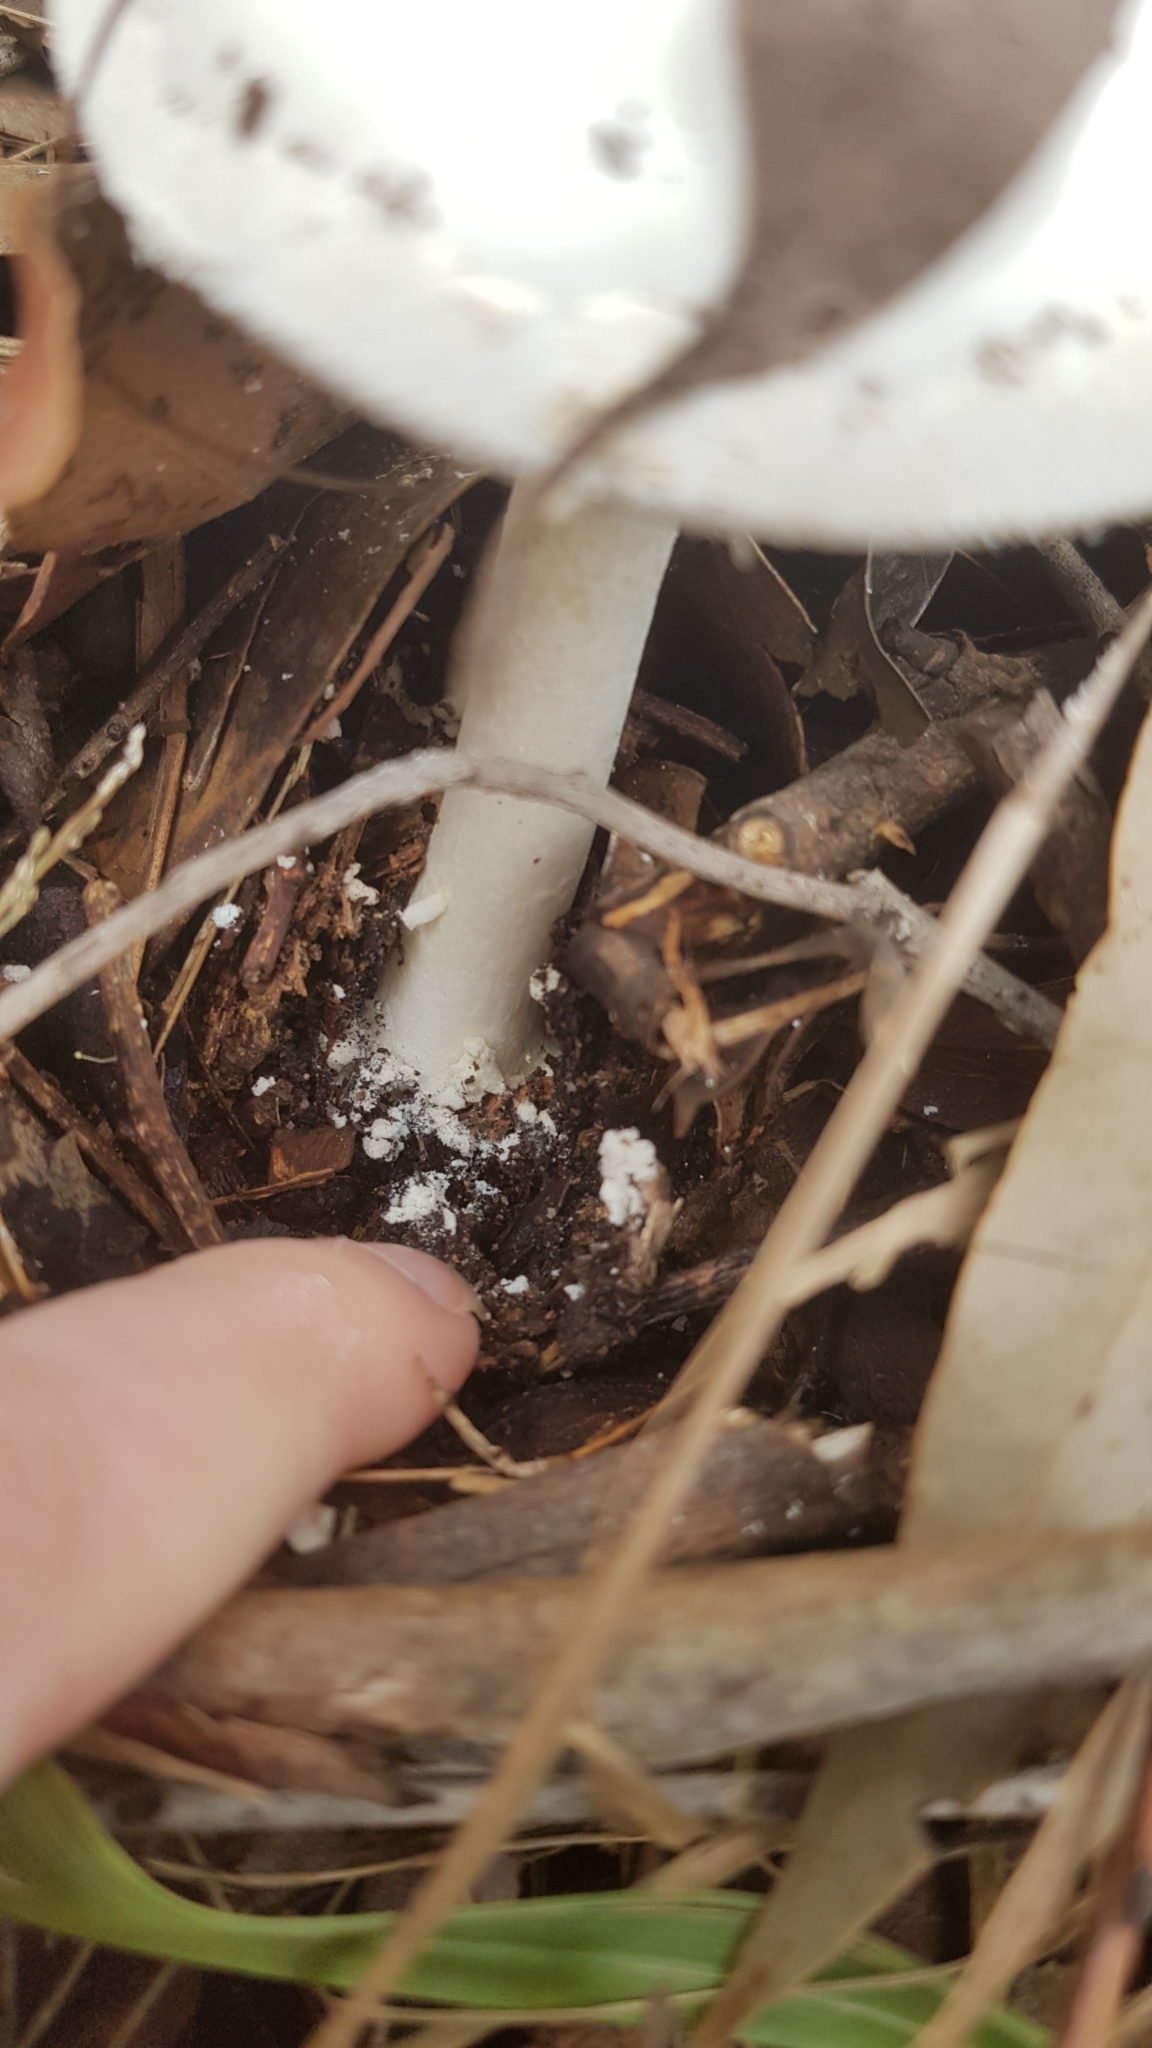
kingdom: Fungi
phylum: Basidiomycota
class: Agaricomycetes
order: Agaricales
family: Amanitaceae
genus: Amanita
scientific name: Amanita farinacea
